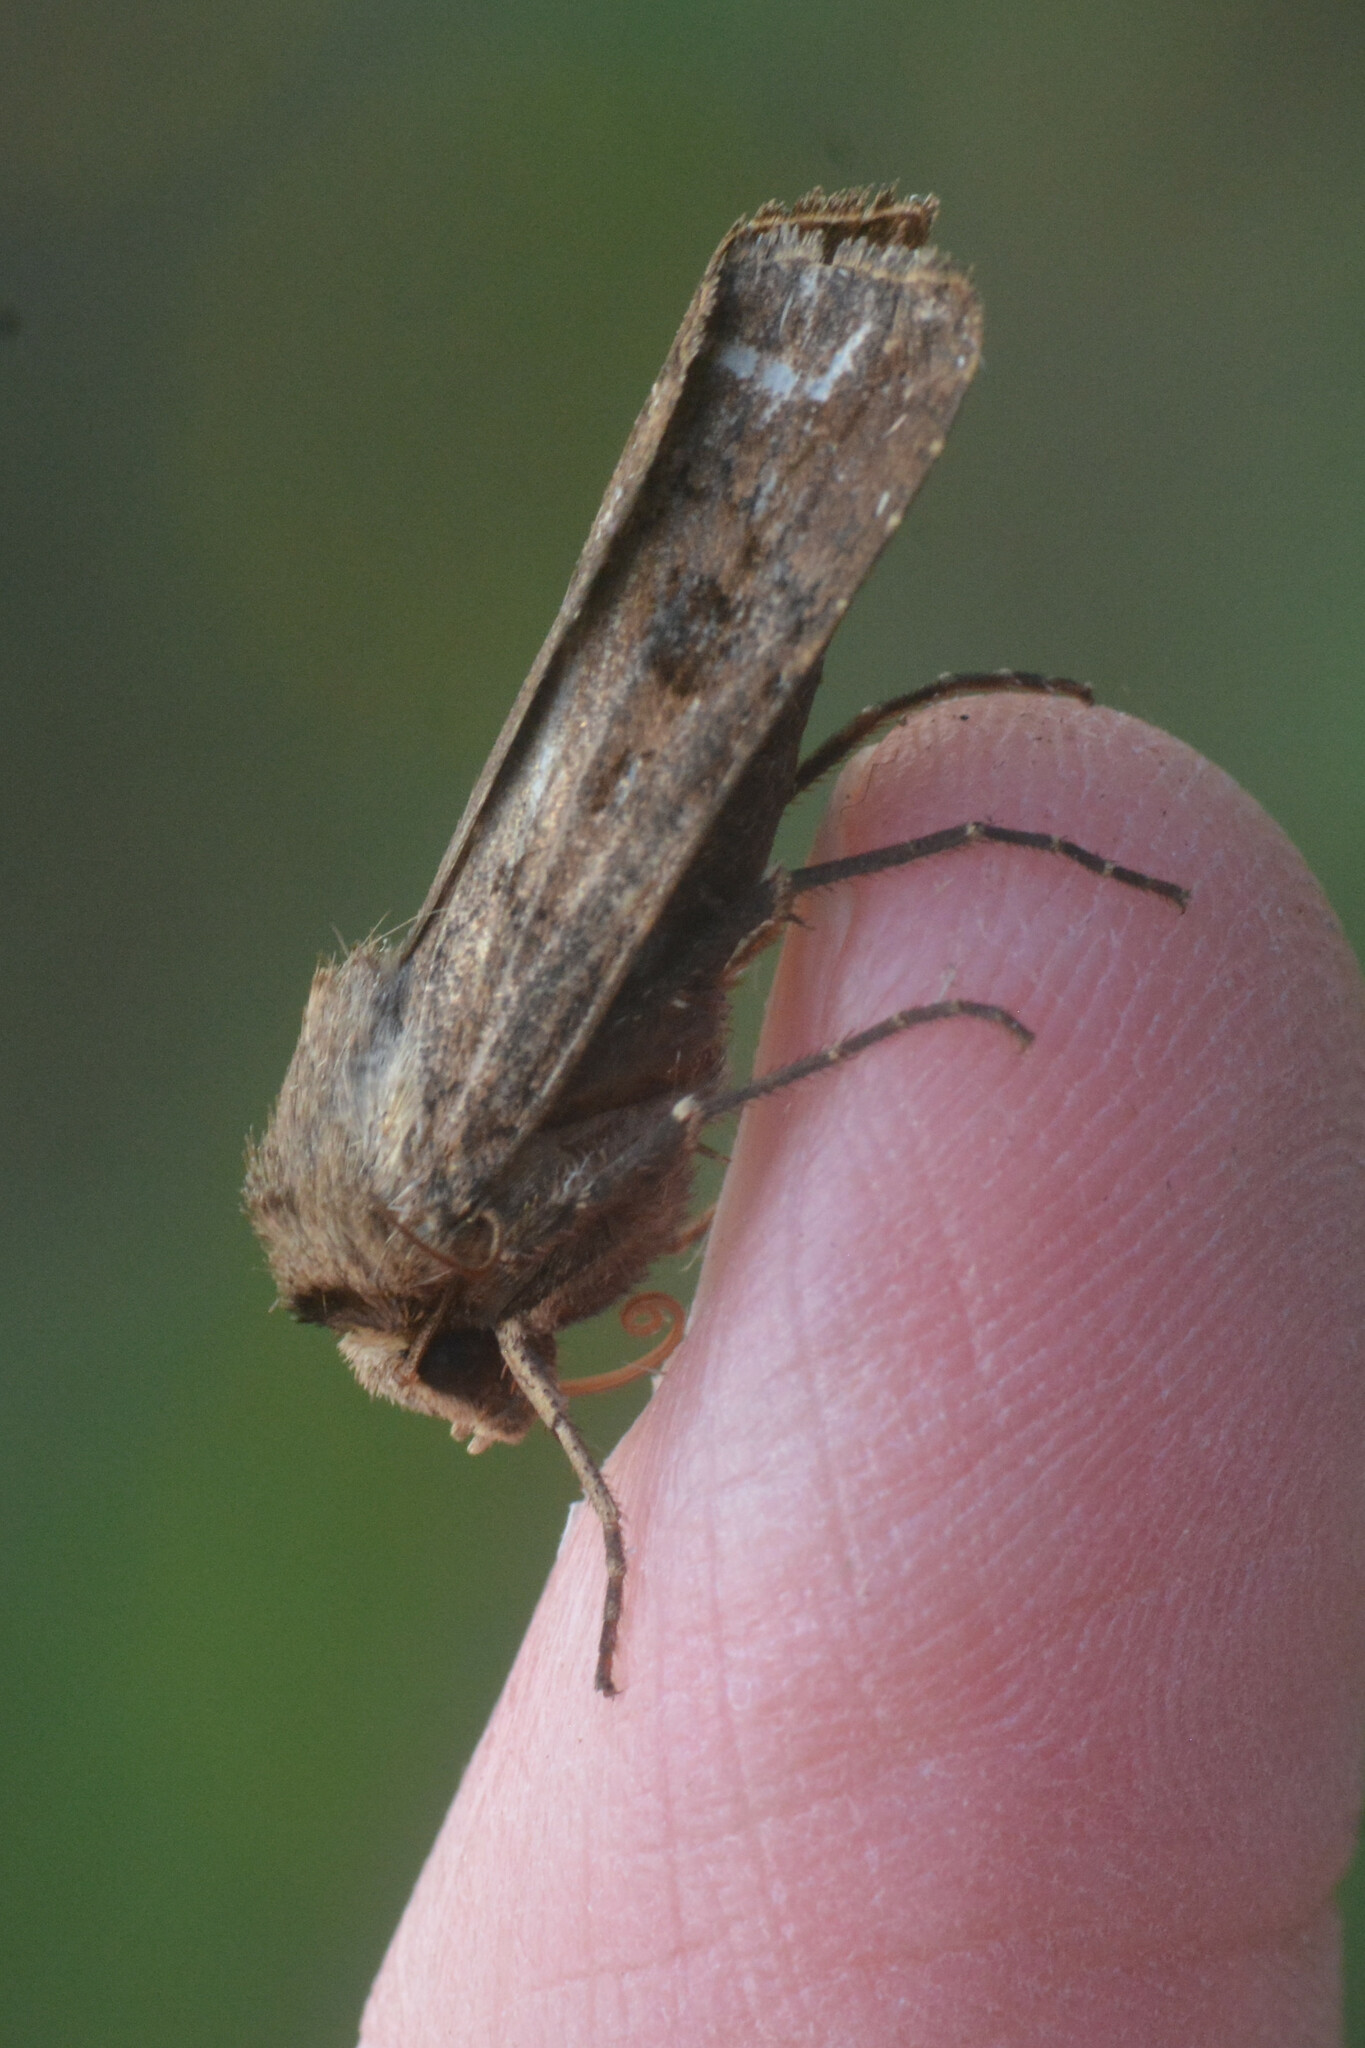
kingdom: Animalia
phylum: Arthropoda
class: Insecta
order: Lepidoptera
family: Noctuidae
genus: Agrotis
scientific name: Agrotis exclamationis
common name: Heart and dart
